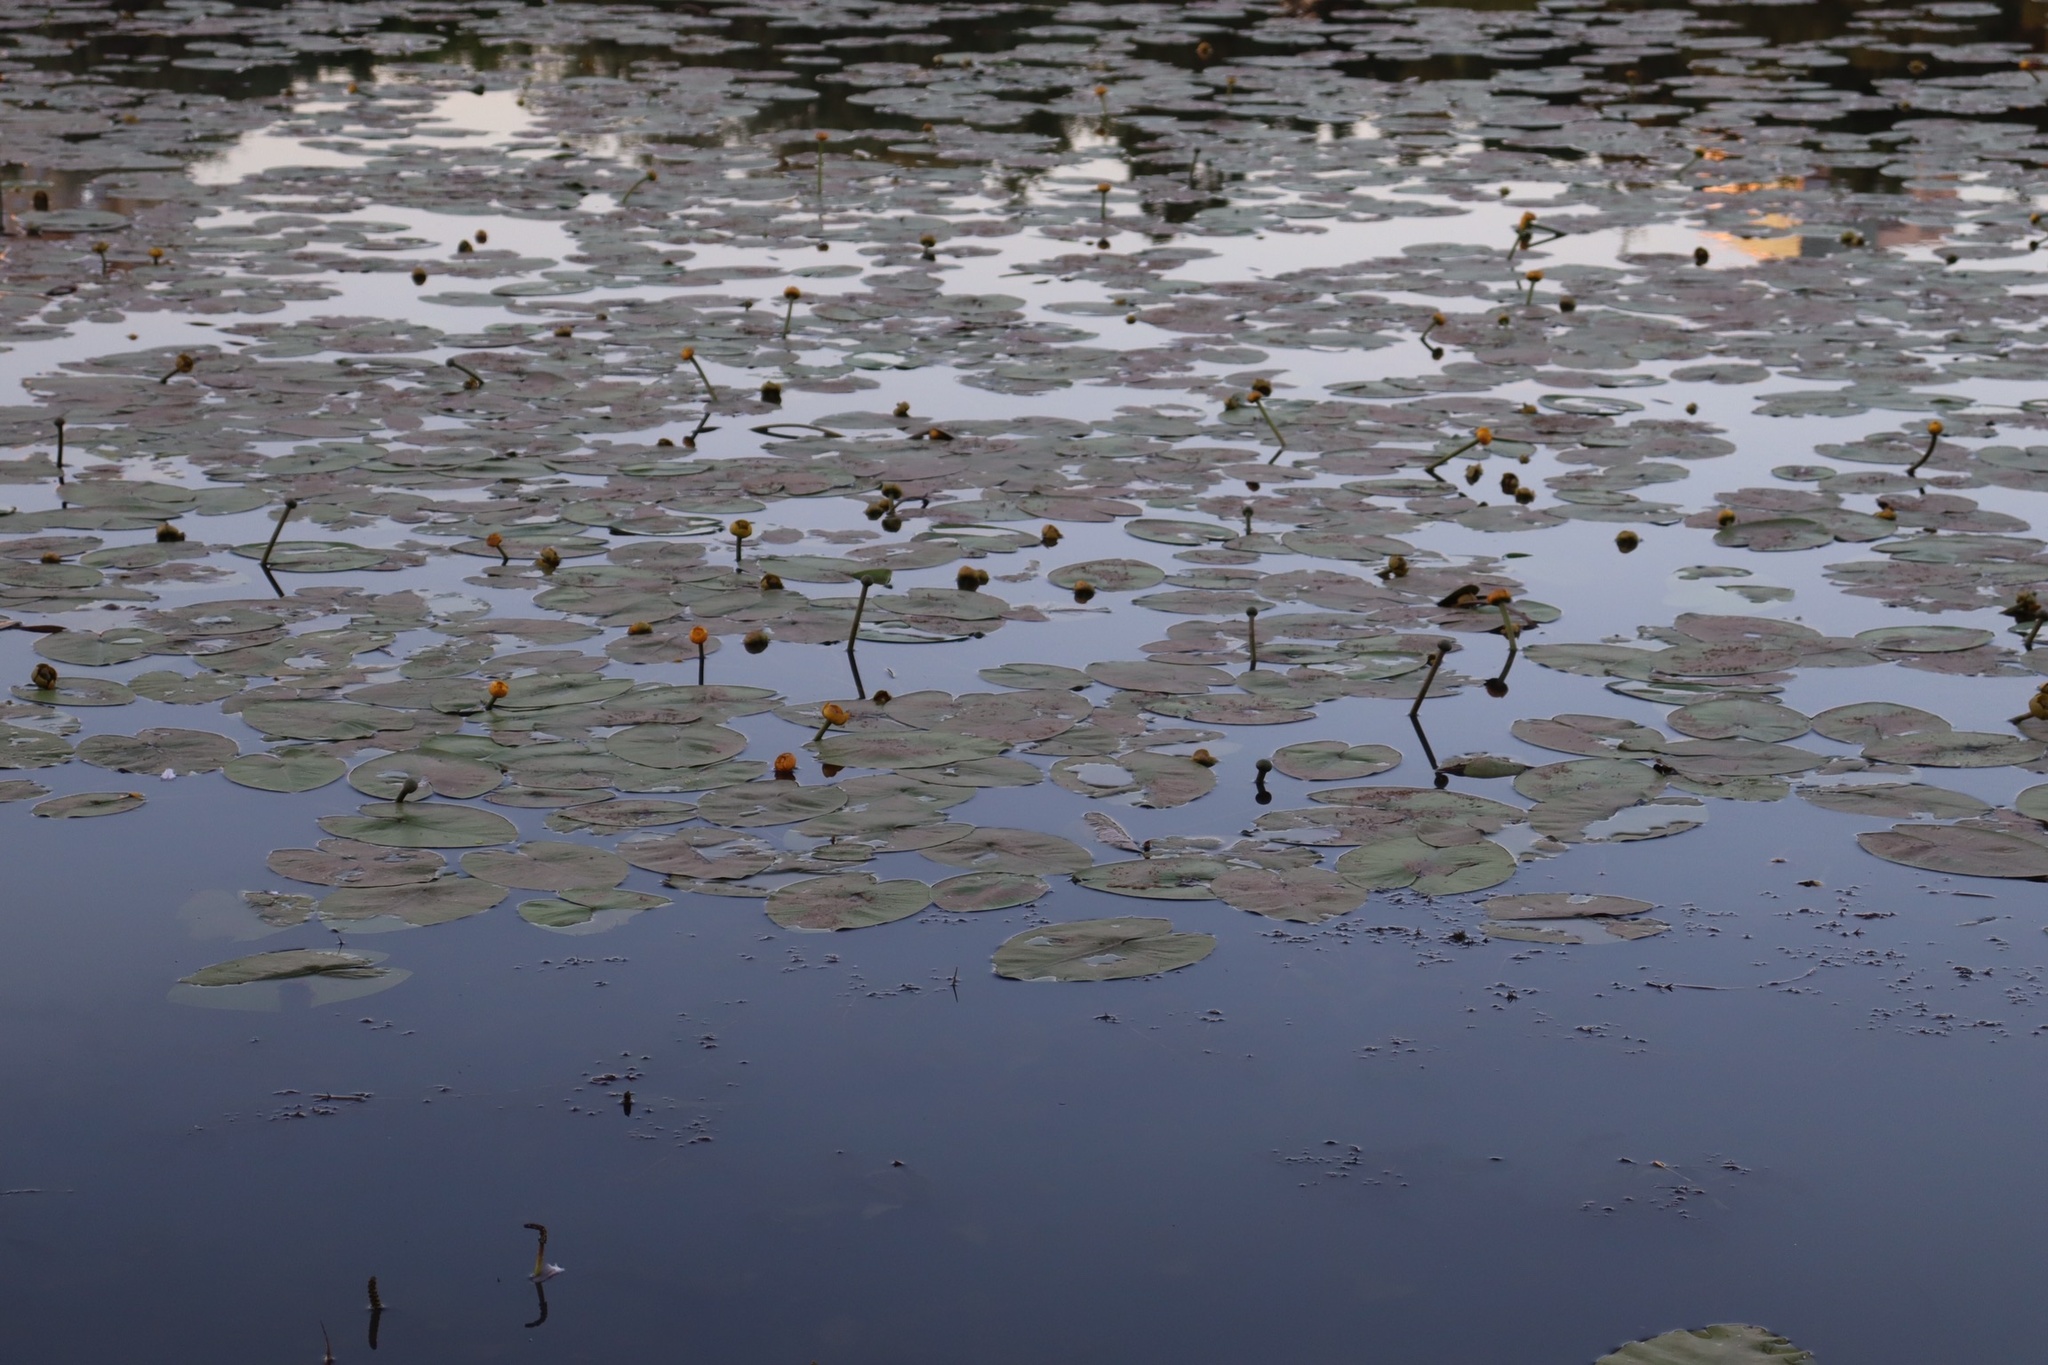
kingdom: Plantae
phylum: Tracheophyta
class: Magnoliopsida
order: Nymphaeales
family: Nymphaeaceae
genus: Nuphar
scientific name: Nuphar lutea
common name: Yellow water-lily
